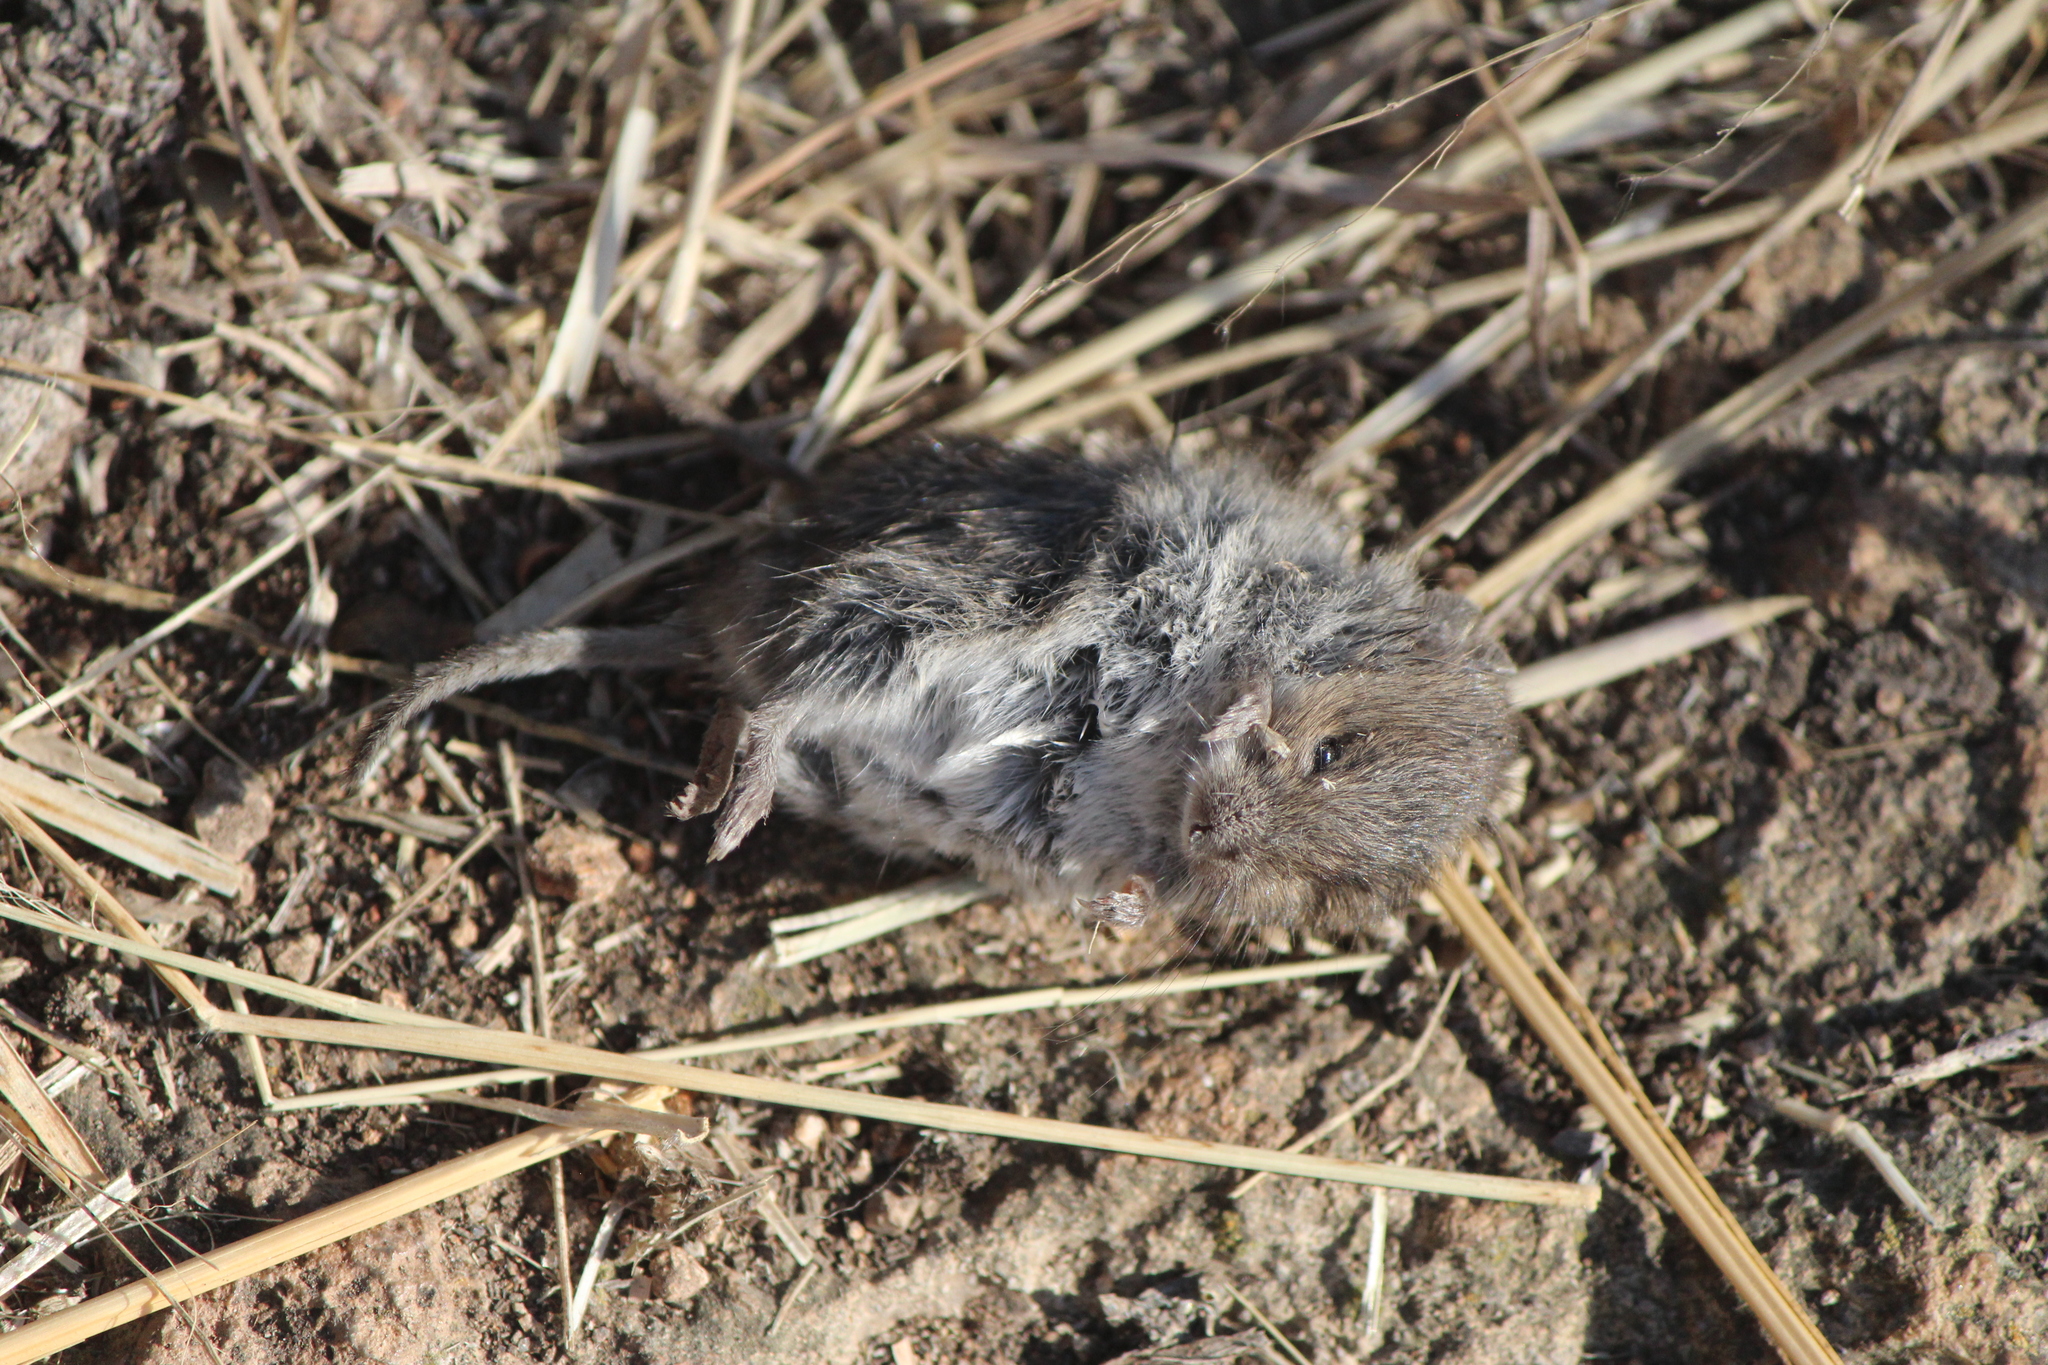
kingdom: Animalia
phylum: Chordata
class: Mammalia
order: Rodentia
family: Cricetidae
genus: Baiomys
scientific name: Baiomys taylori
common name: Northern pygmy mouse
